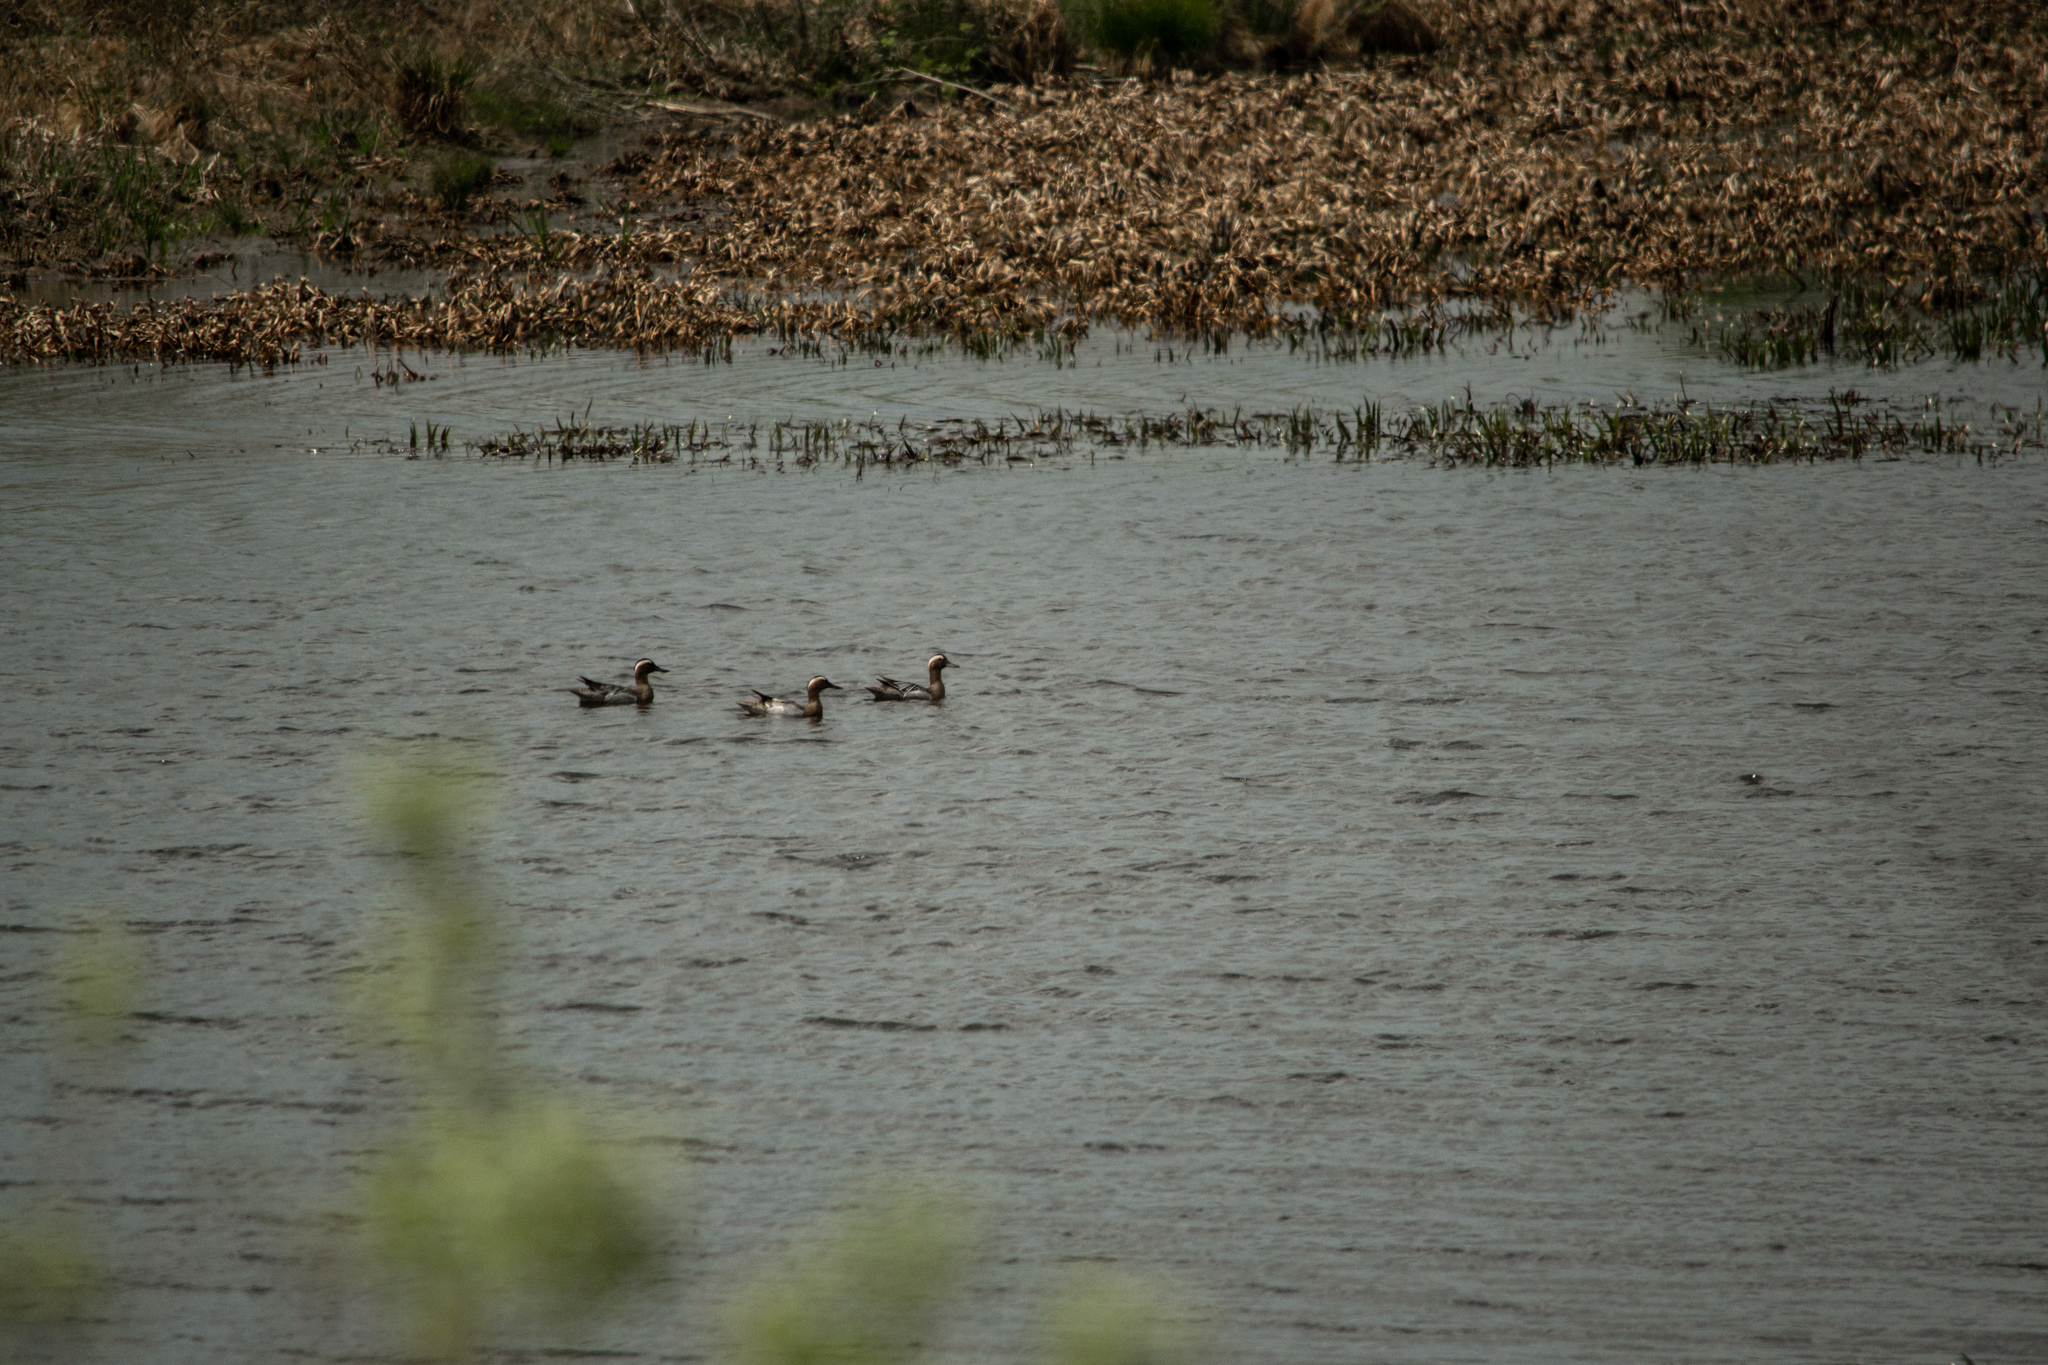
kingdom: Animalia
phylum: Chordata
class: Aves
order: Anseriformes
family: Anatidae
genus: Spatula
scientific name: Spatula querquedula
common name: Garganey
